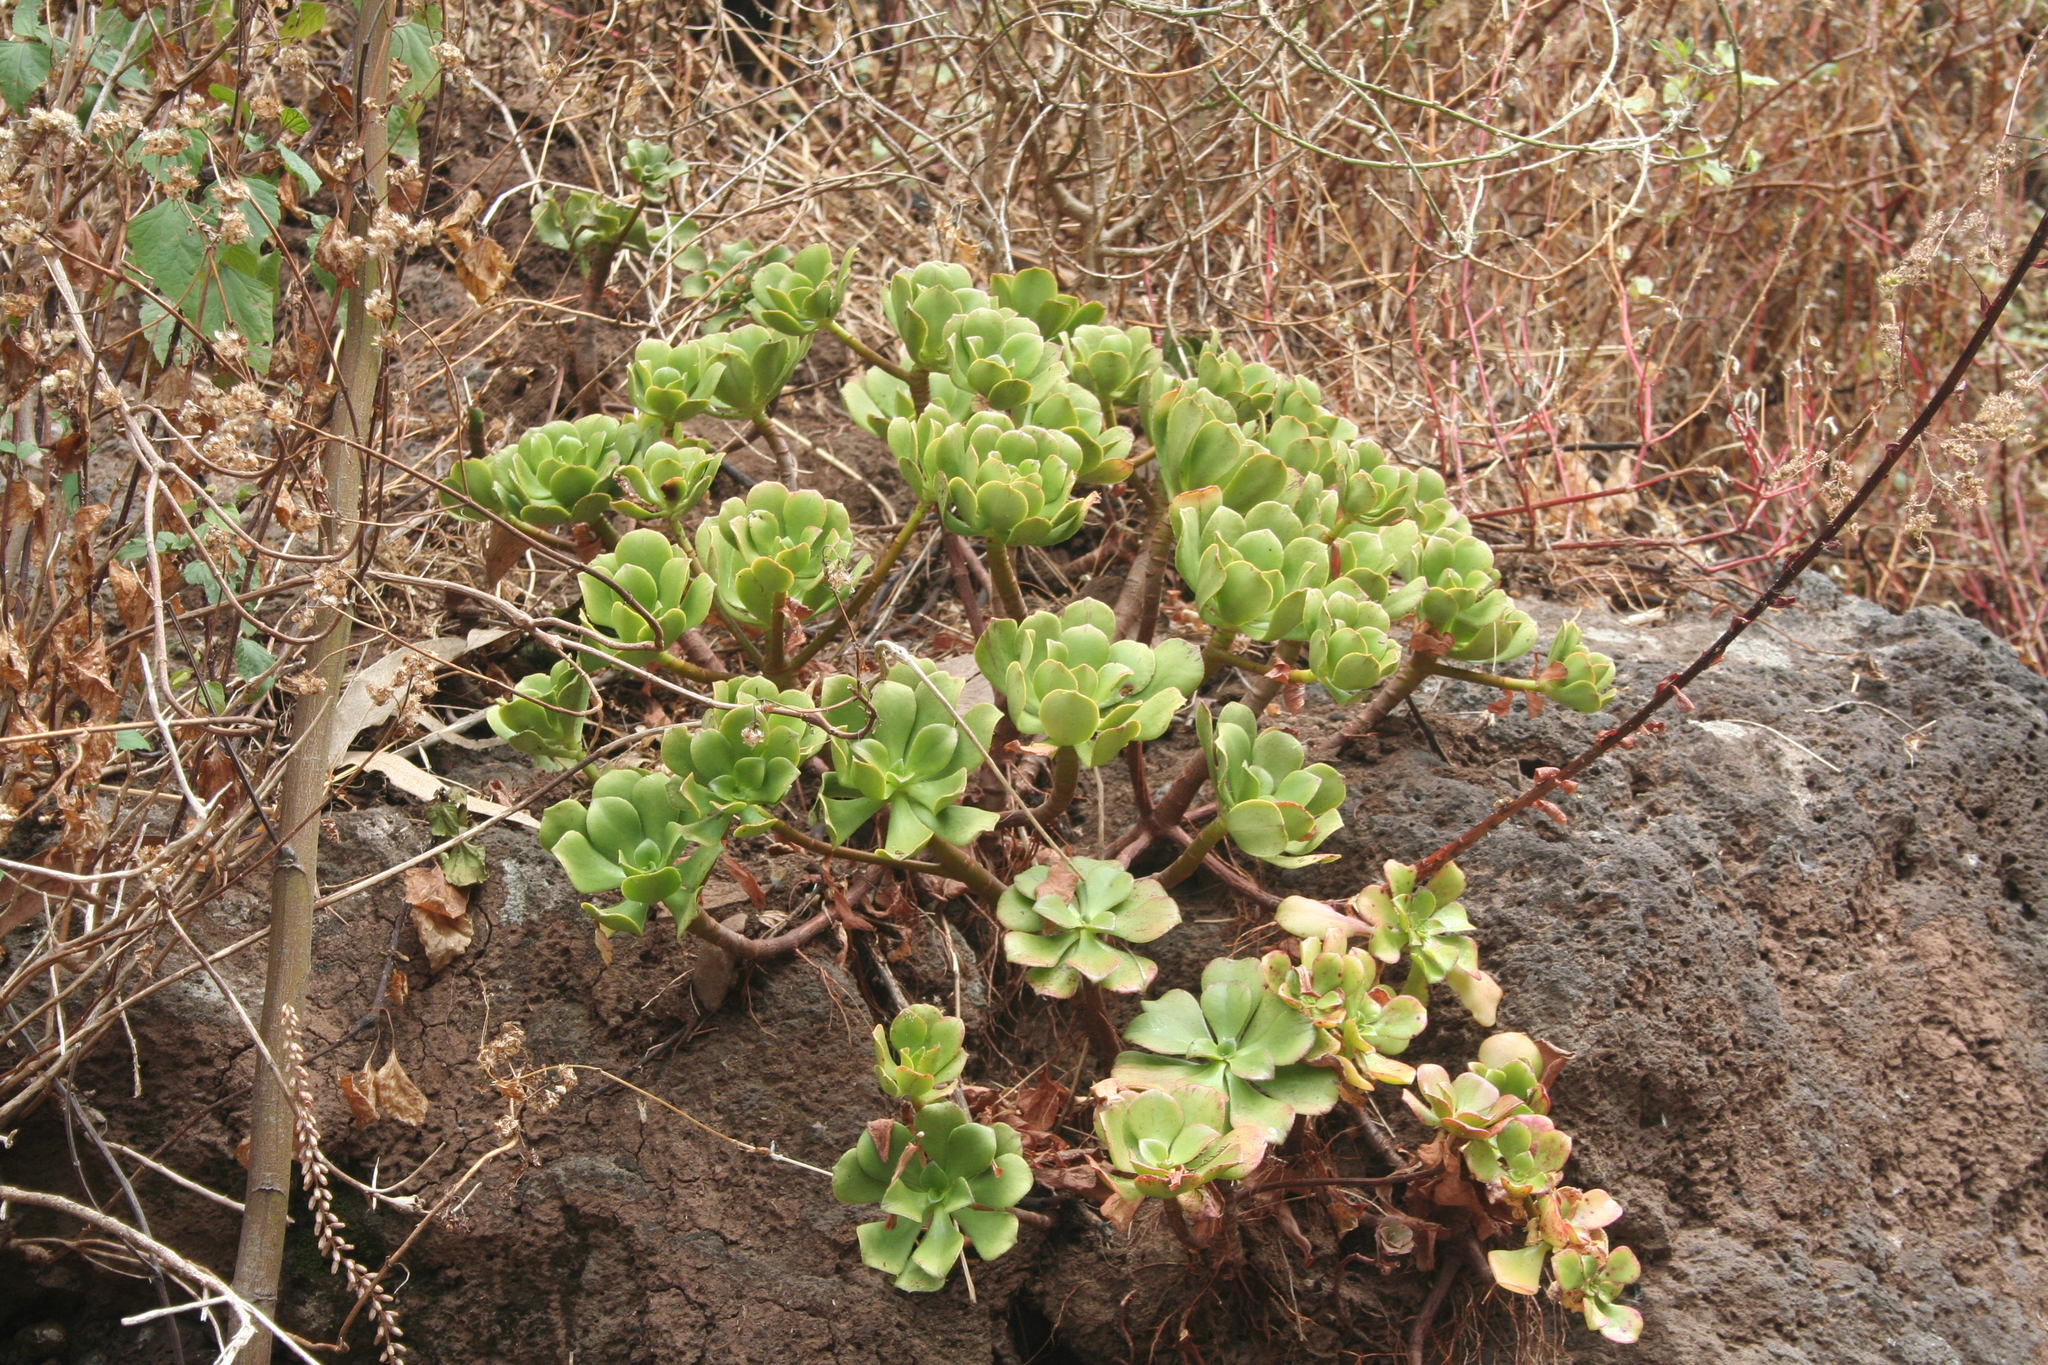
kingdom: Plantae
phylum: Tracheophyta
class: Magnoliopsida
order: Saxifragales
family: Crassulaceae
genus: Aeonium
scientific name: Aeonium glutinosum
